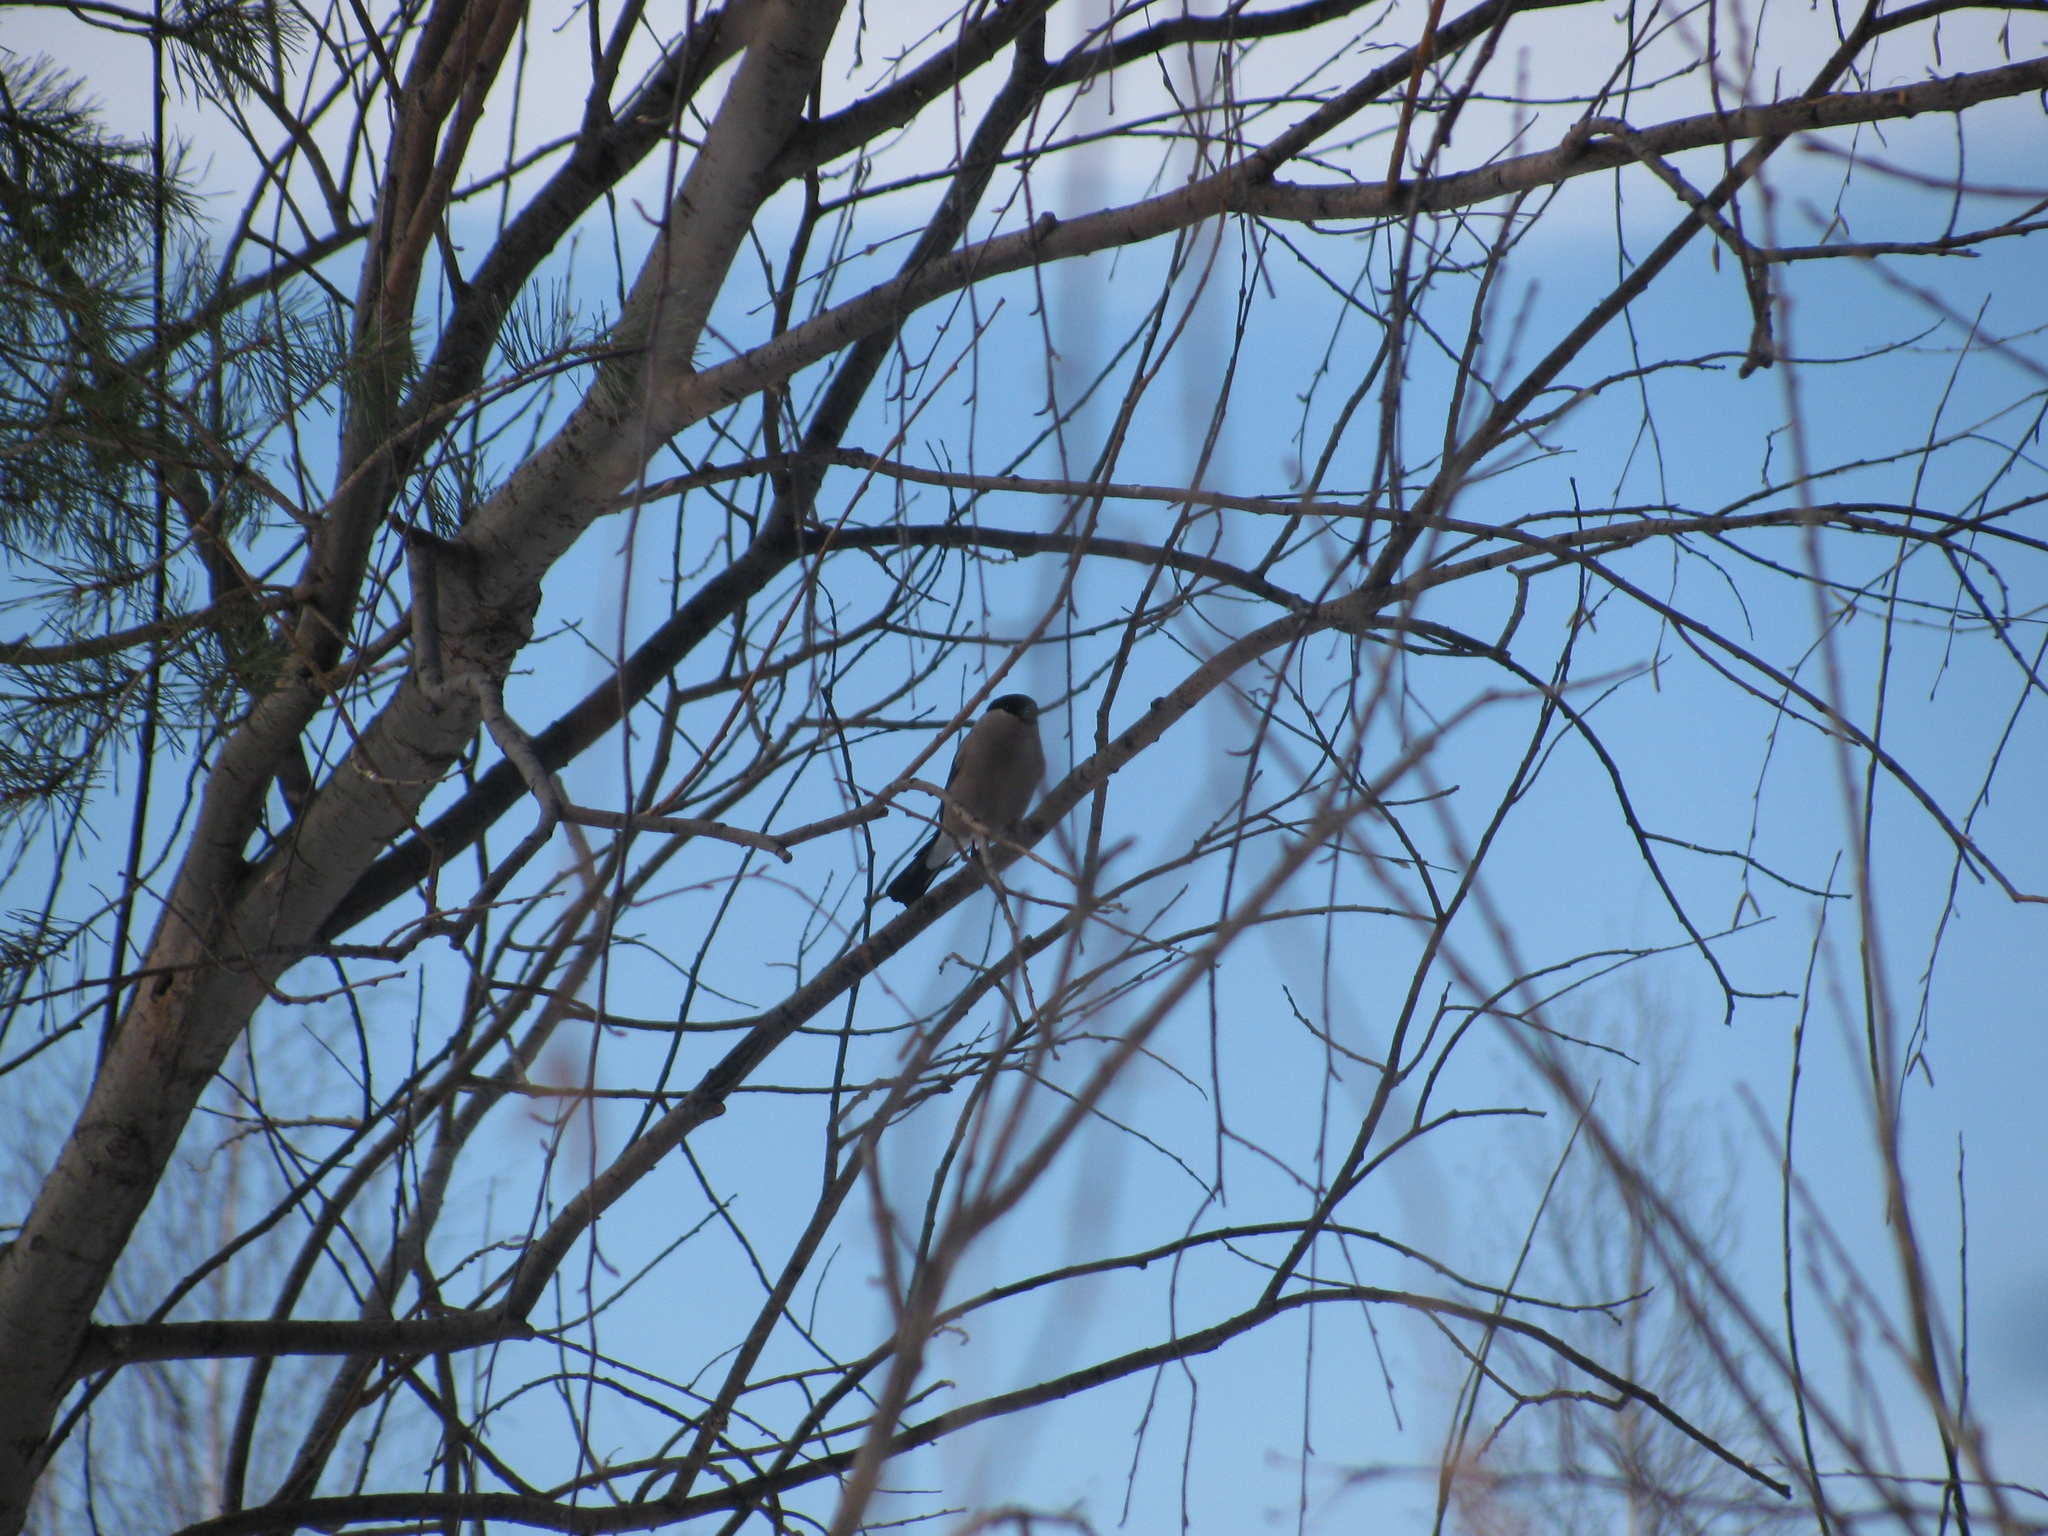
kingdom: Animalia
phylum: Chordata
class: Aves
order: Passeriformes
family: Fringillidae
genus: Pyrrhula
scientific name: Pyrrhula pyrrhula
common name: Eurasian bullfinch
